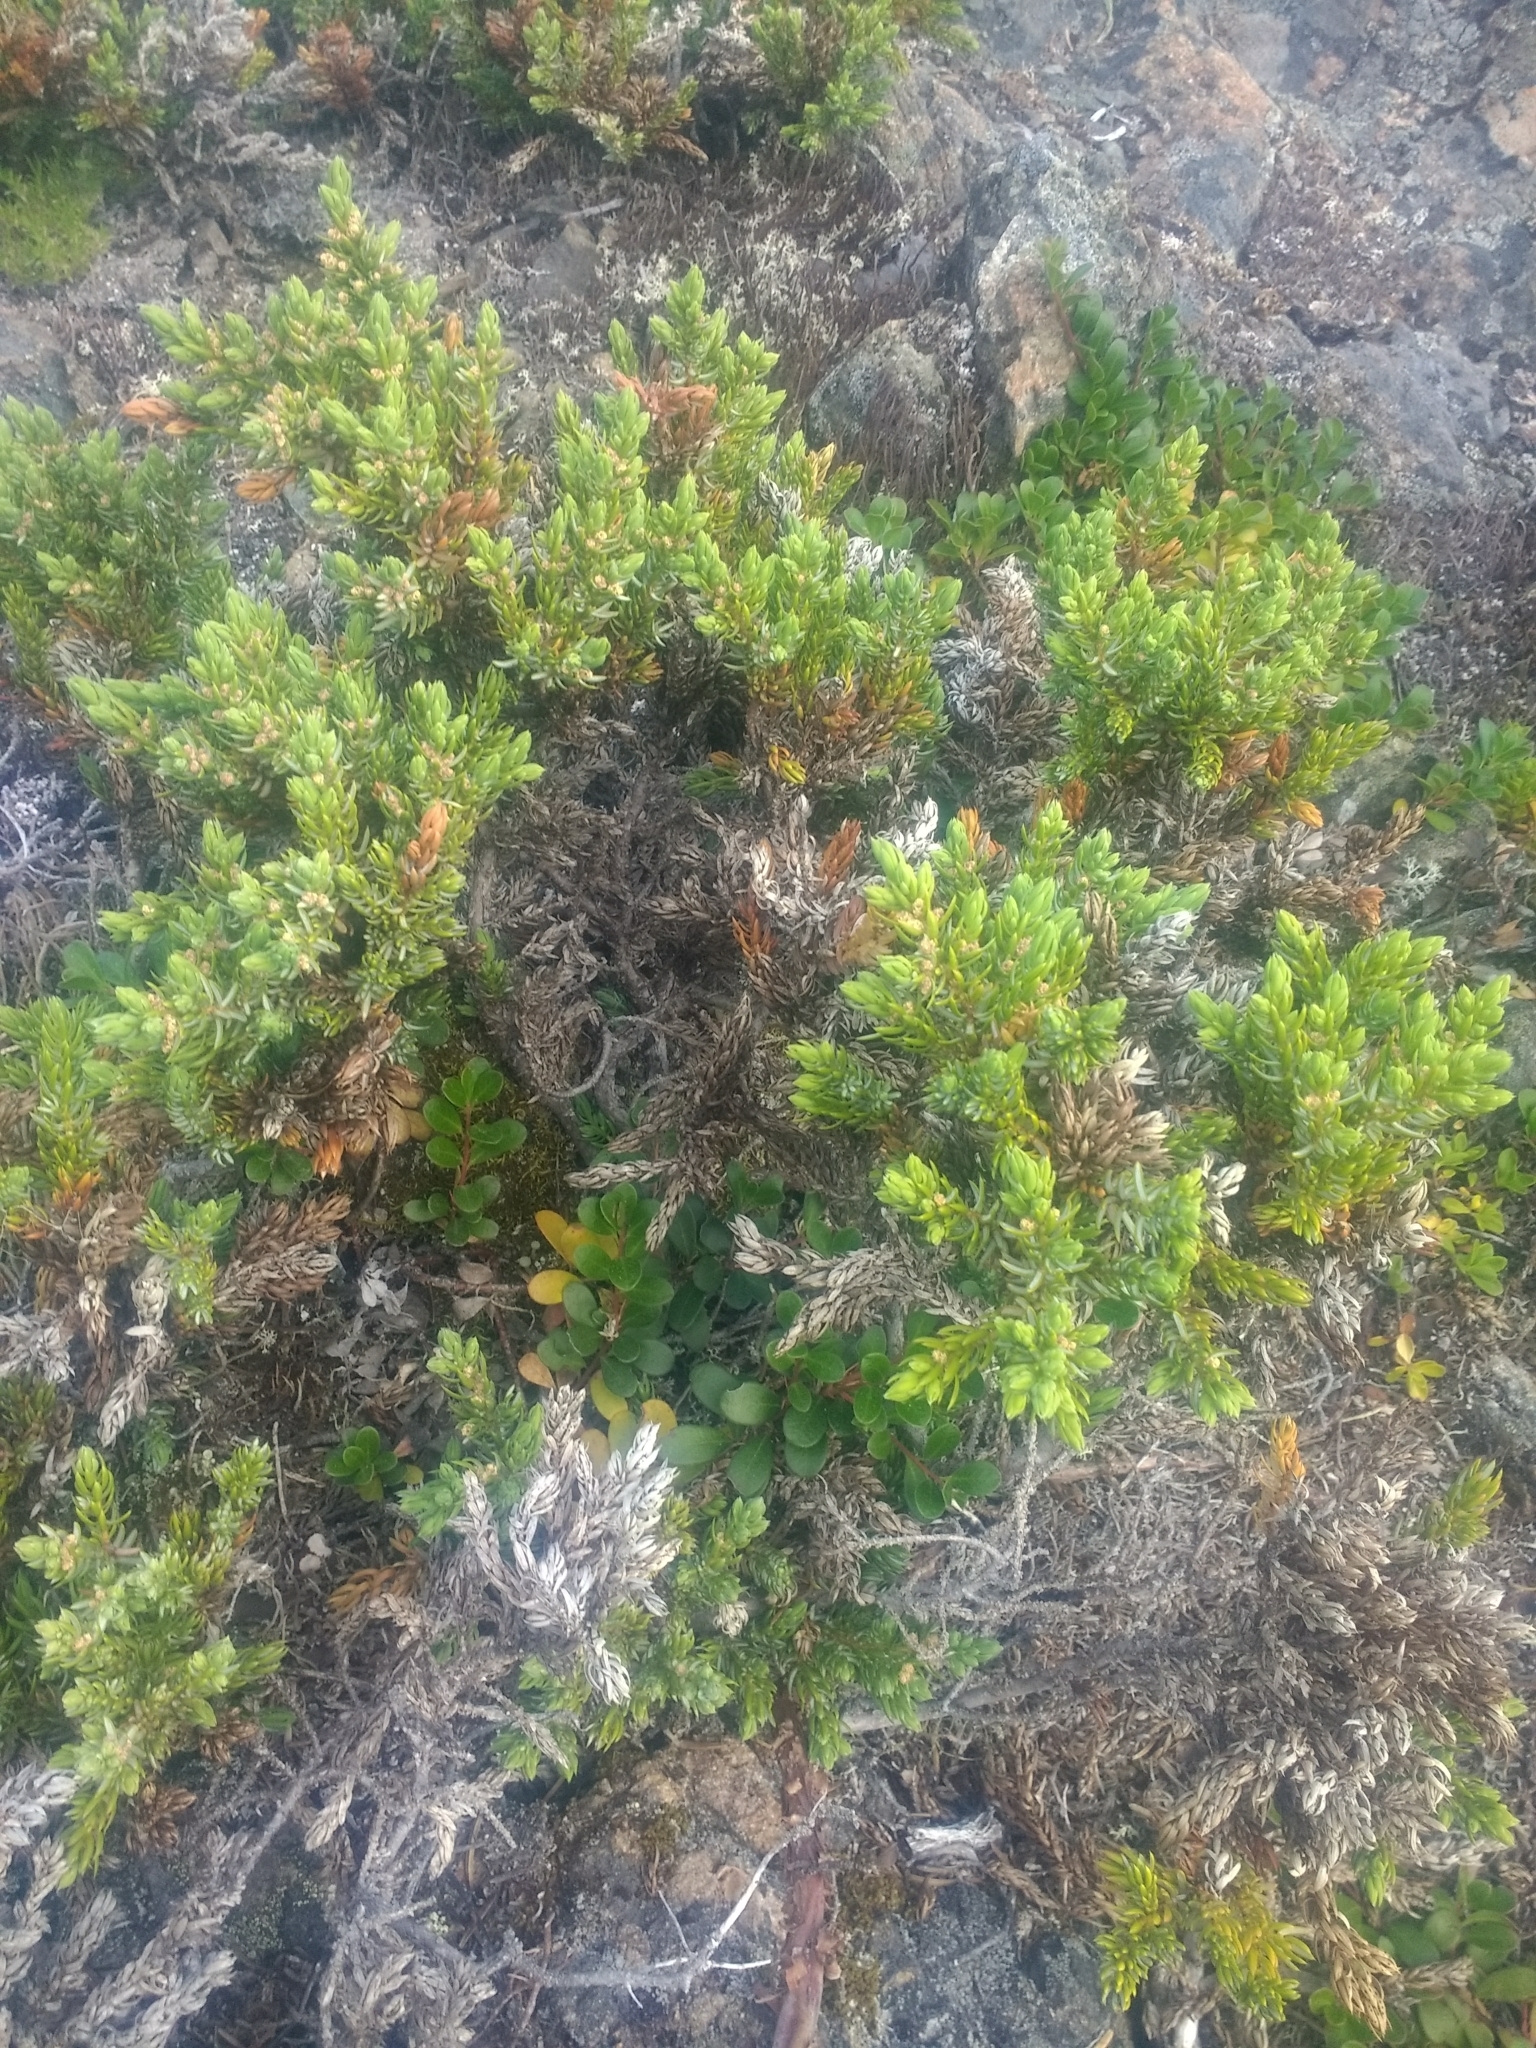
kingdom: Plantae
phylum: Tracheophyta
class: Pinopsida
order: Pinales
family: Cupressaceae
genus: Juniperus
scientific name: Juniperus communis
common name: Common juniper
